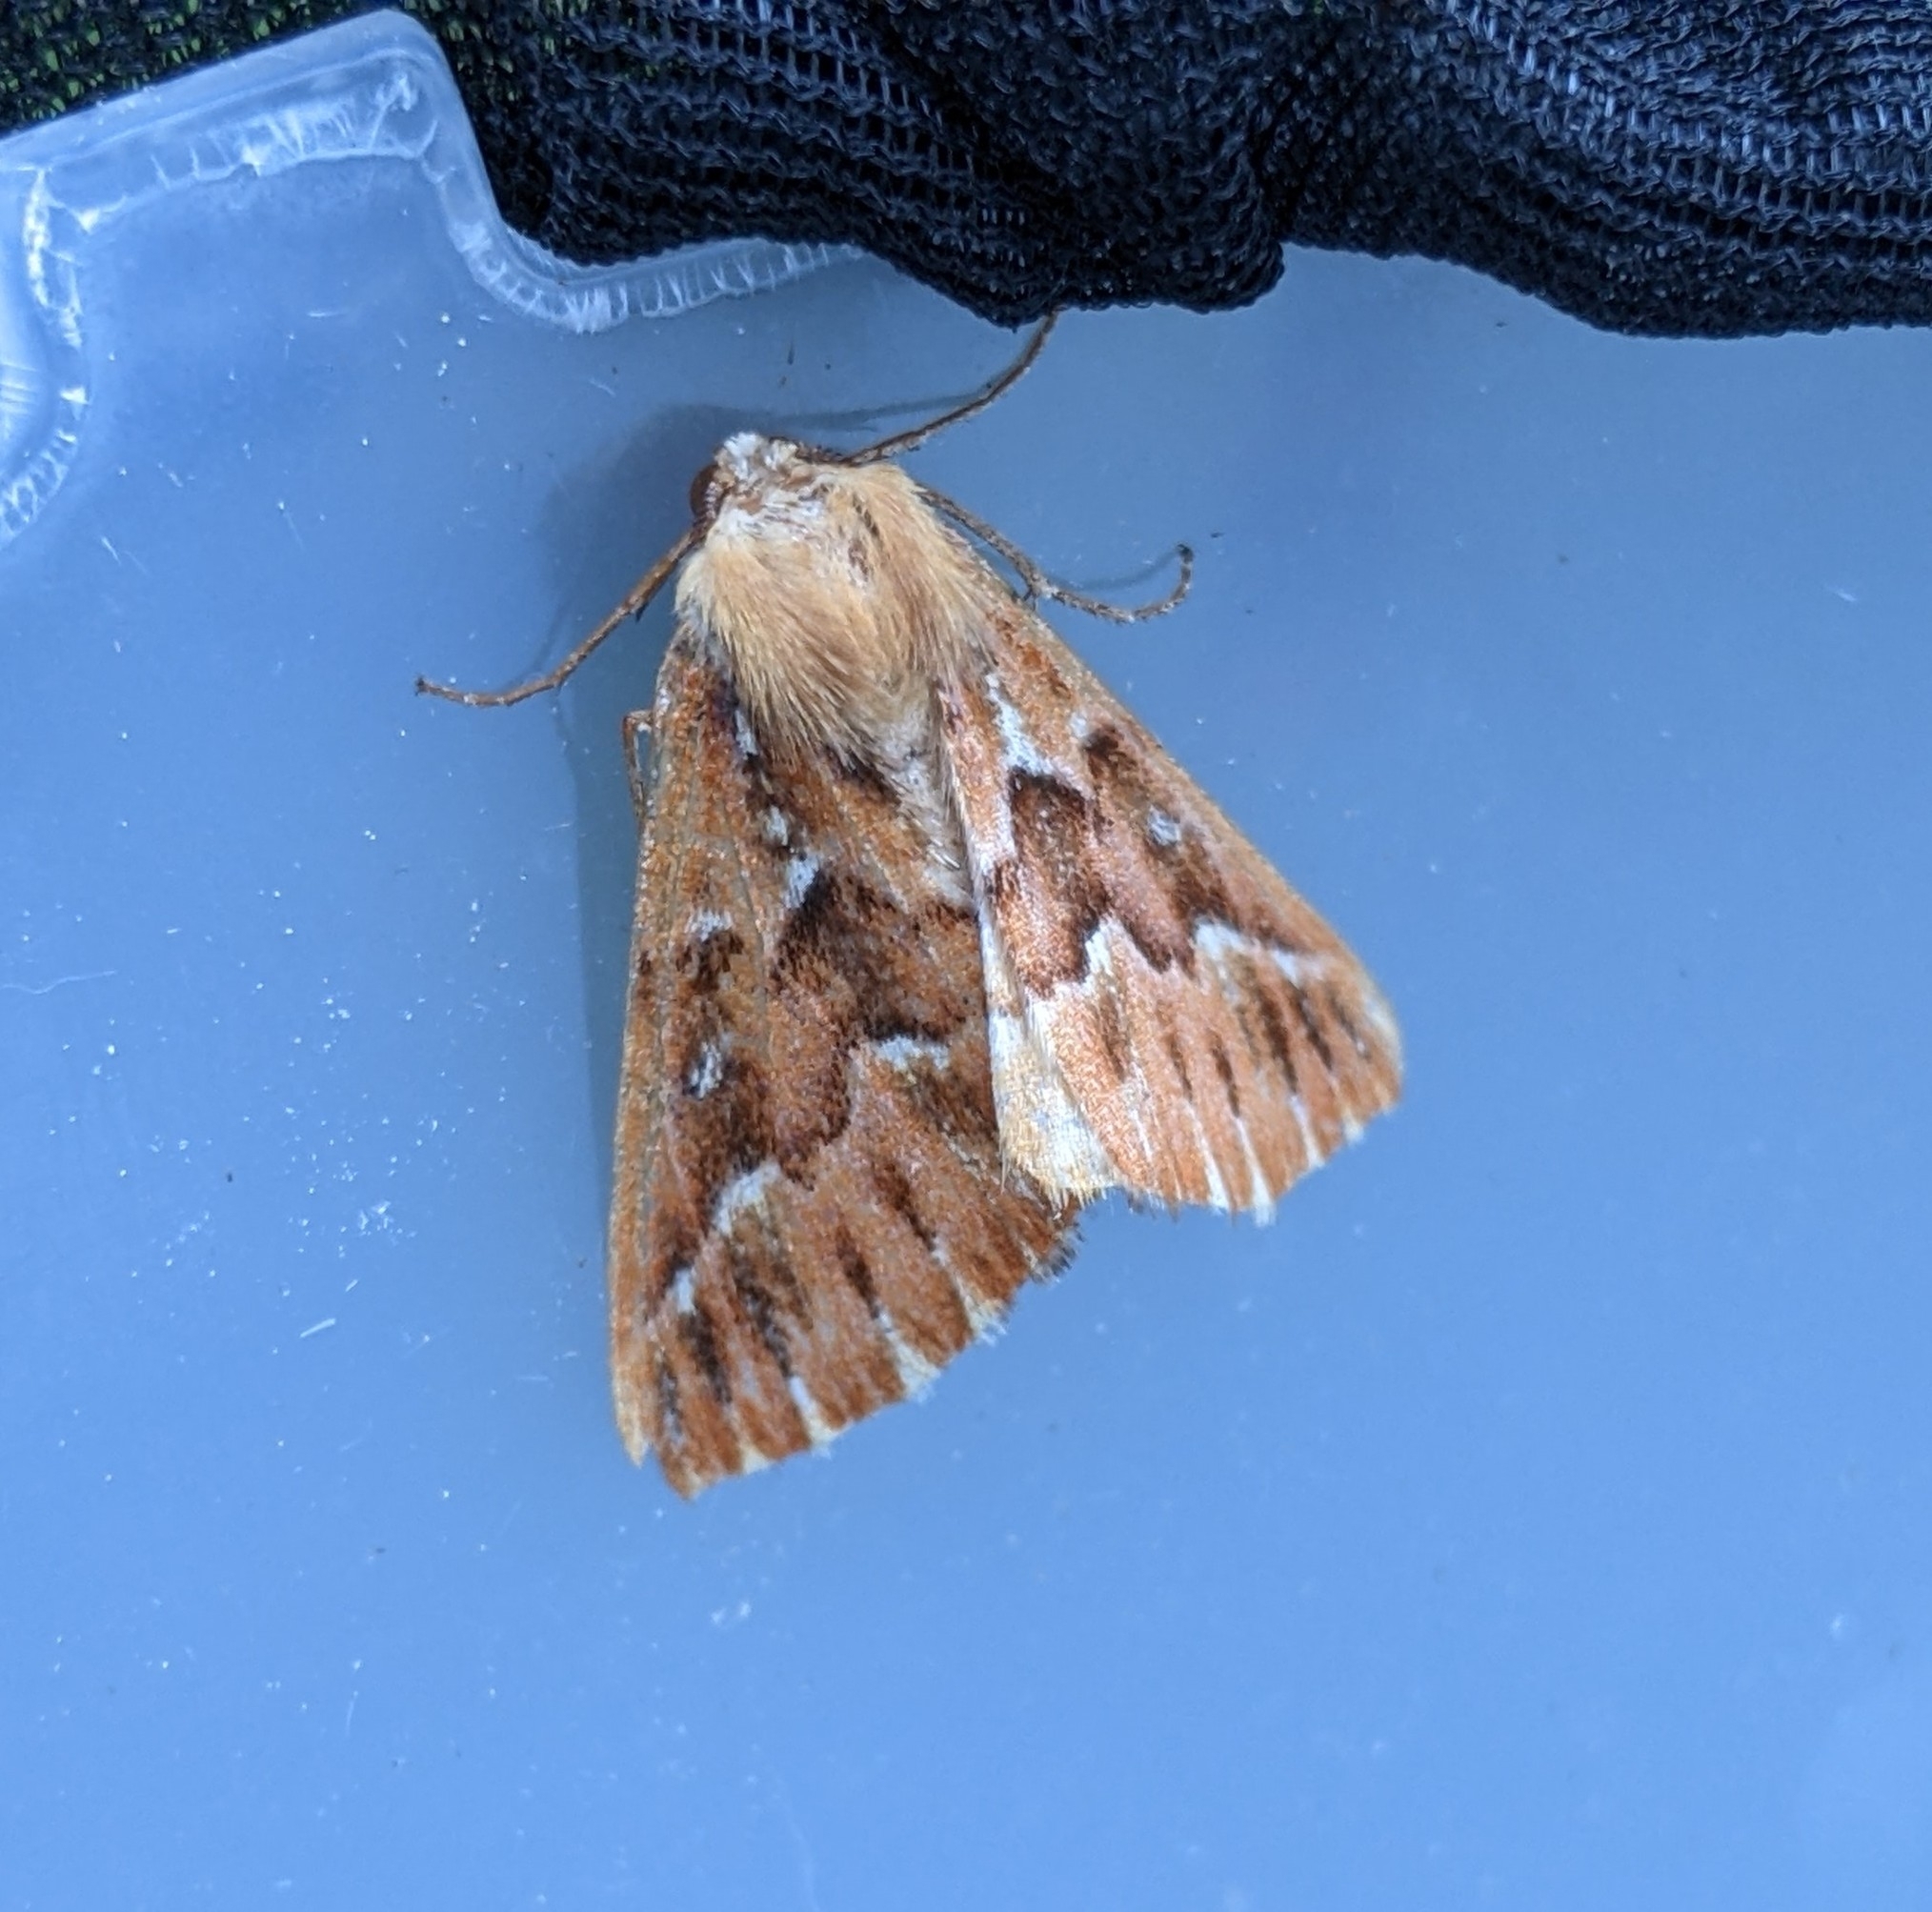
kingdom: Animalia
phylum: Arthropoda
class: Insecta
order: Lepidoptera
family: Geometridae
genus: Caripeta
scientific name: Caripeta aequaliaria
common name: Red girdle moth
